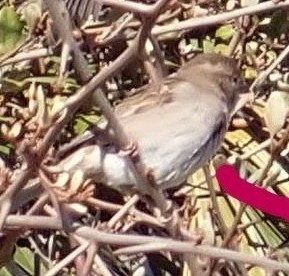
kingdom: Animalia
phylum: Chordata
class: Aves
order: Passeriformes
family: Passeridae
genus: Passer
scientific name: Passer domesticus
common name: House sparrow
